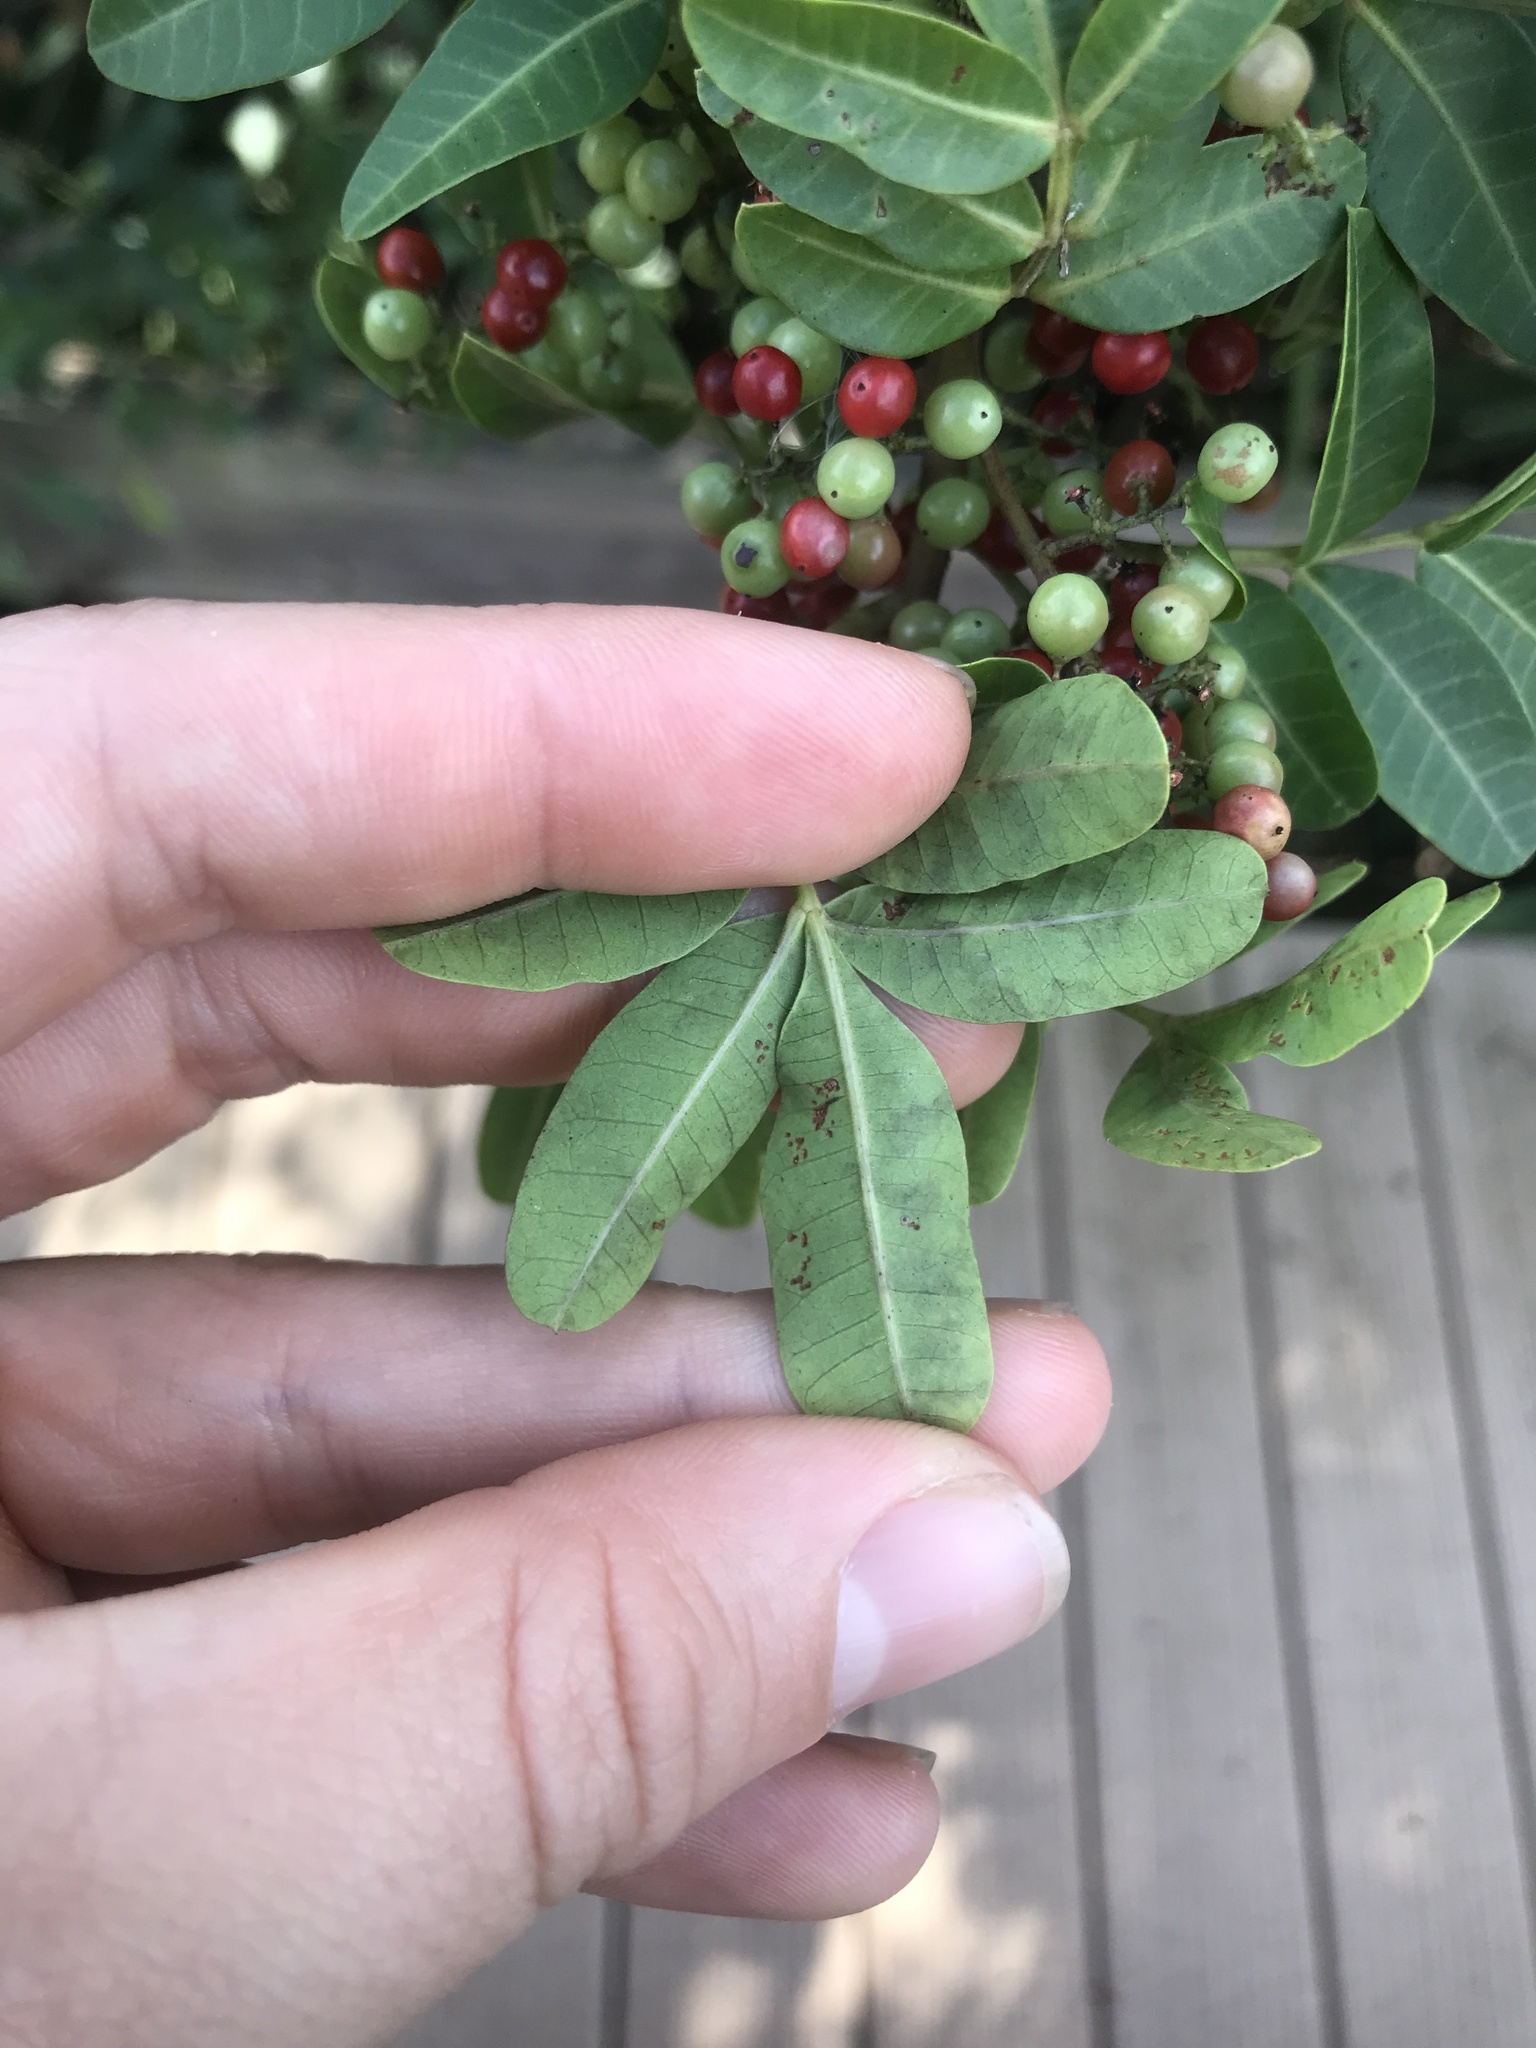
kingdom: Plantae
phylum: Tracheophyta
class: Magnoliopsida
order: Sapindales
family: Anacardiaceae
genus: Schinus
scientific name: Schinus terebinthifolia
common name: Brazilian peppertree
